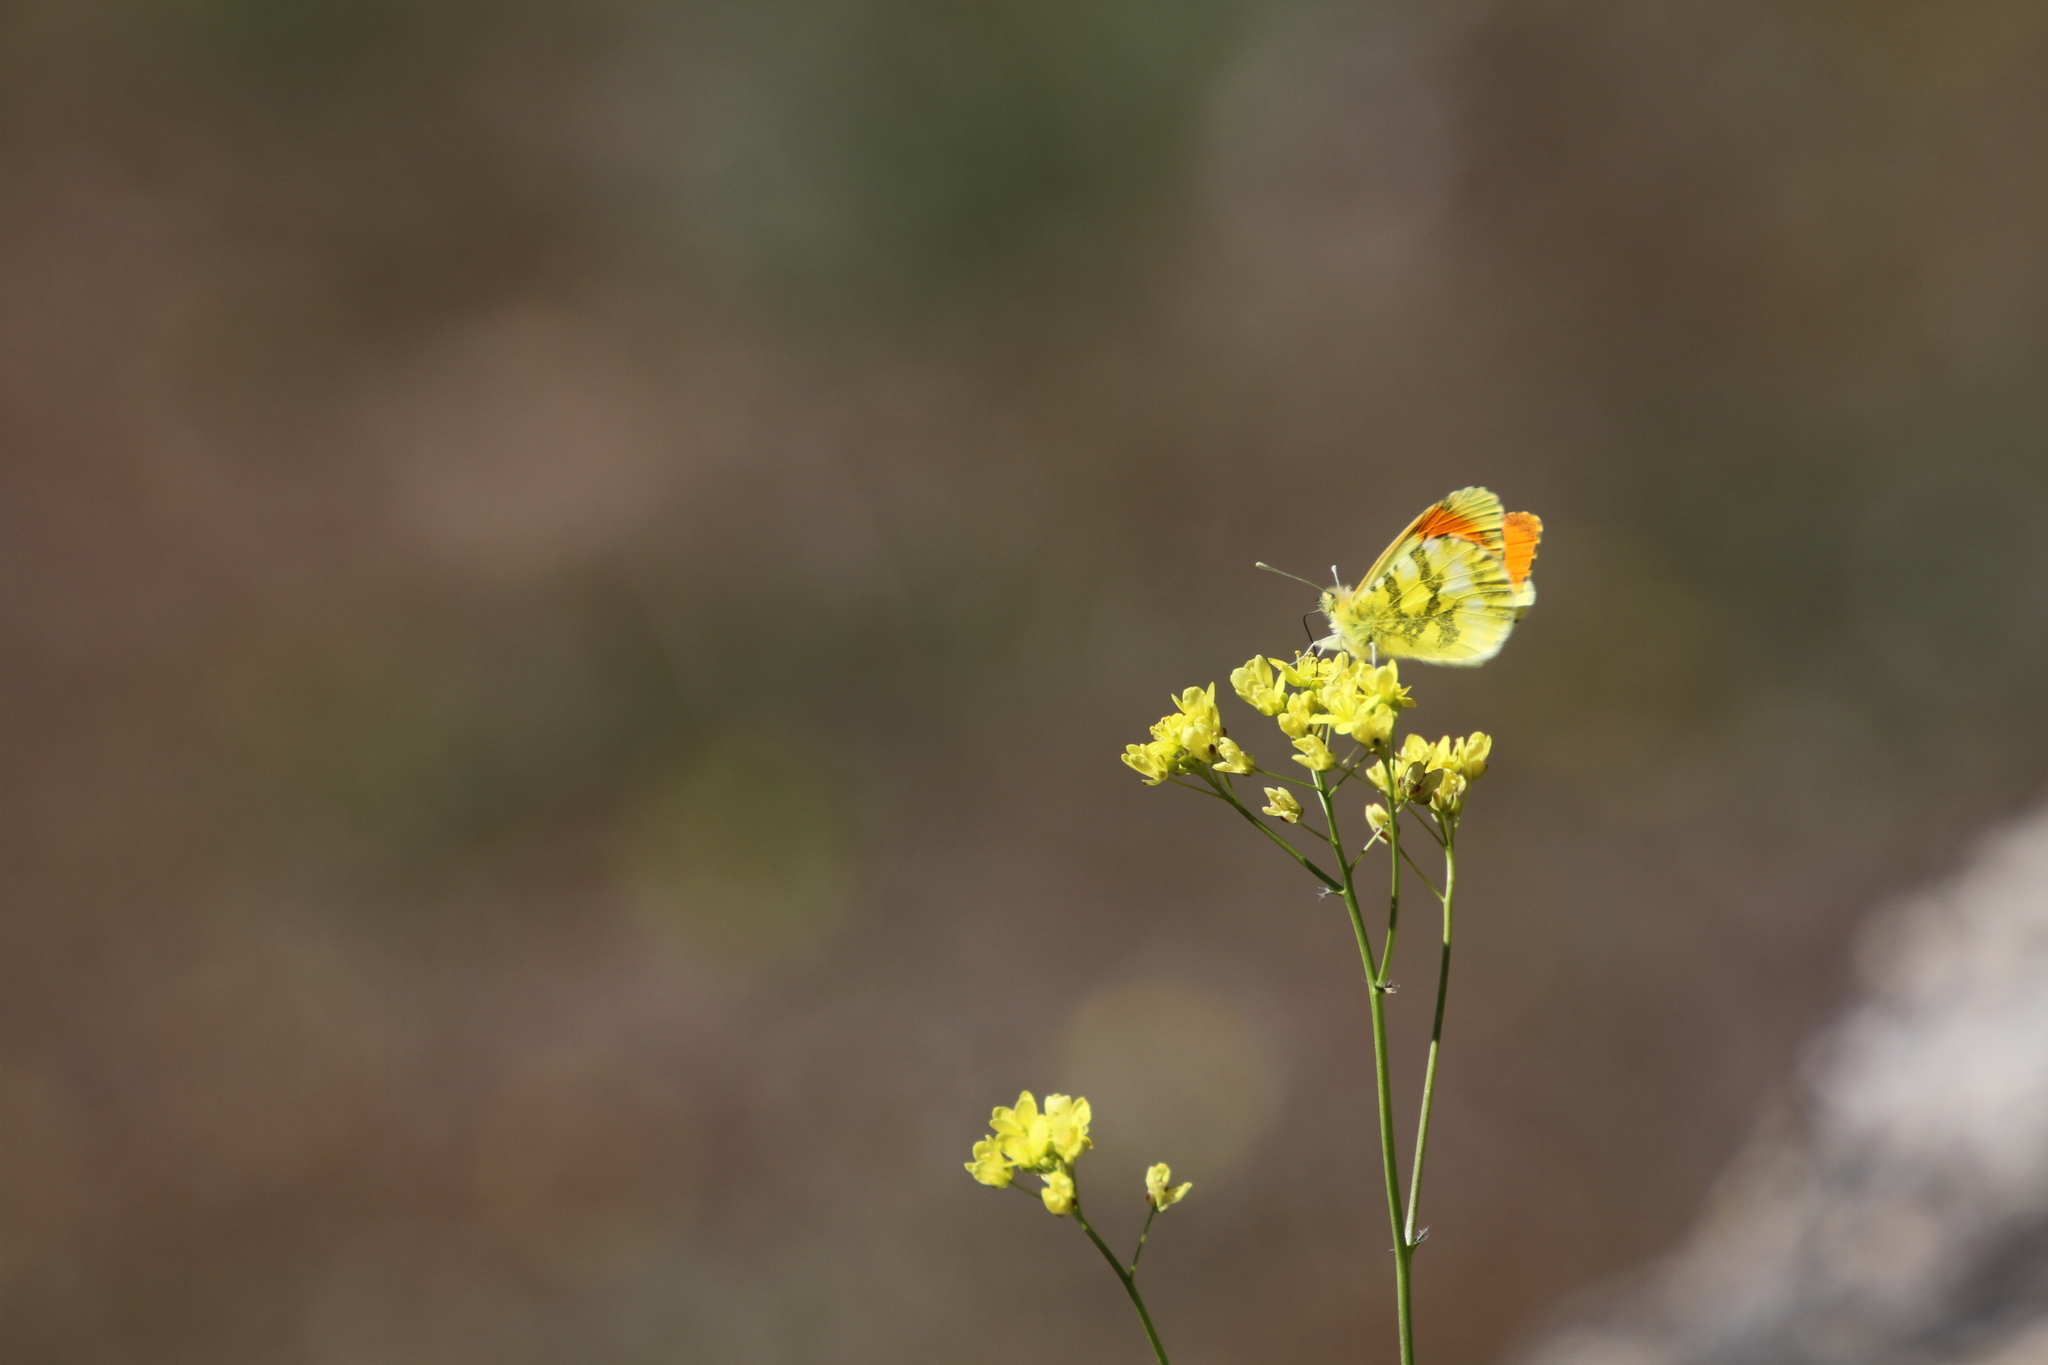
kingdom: Animalia
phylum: Arthropoda
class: Insecta
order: Lepidoptera
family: Pieridae
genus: Anthocharis
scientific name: Anthocharis euphenoides
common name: Provence orange-tip
